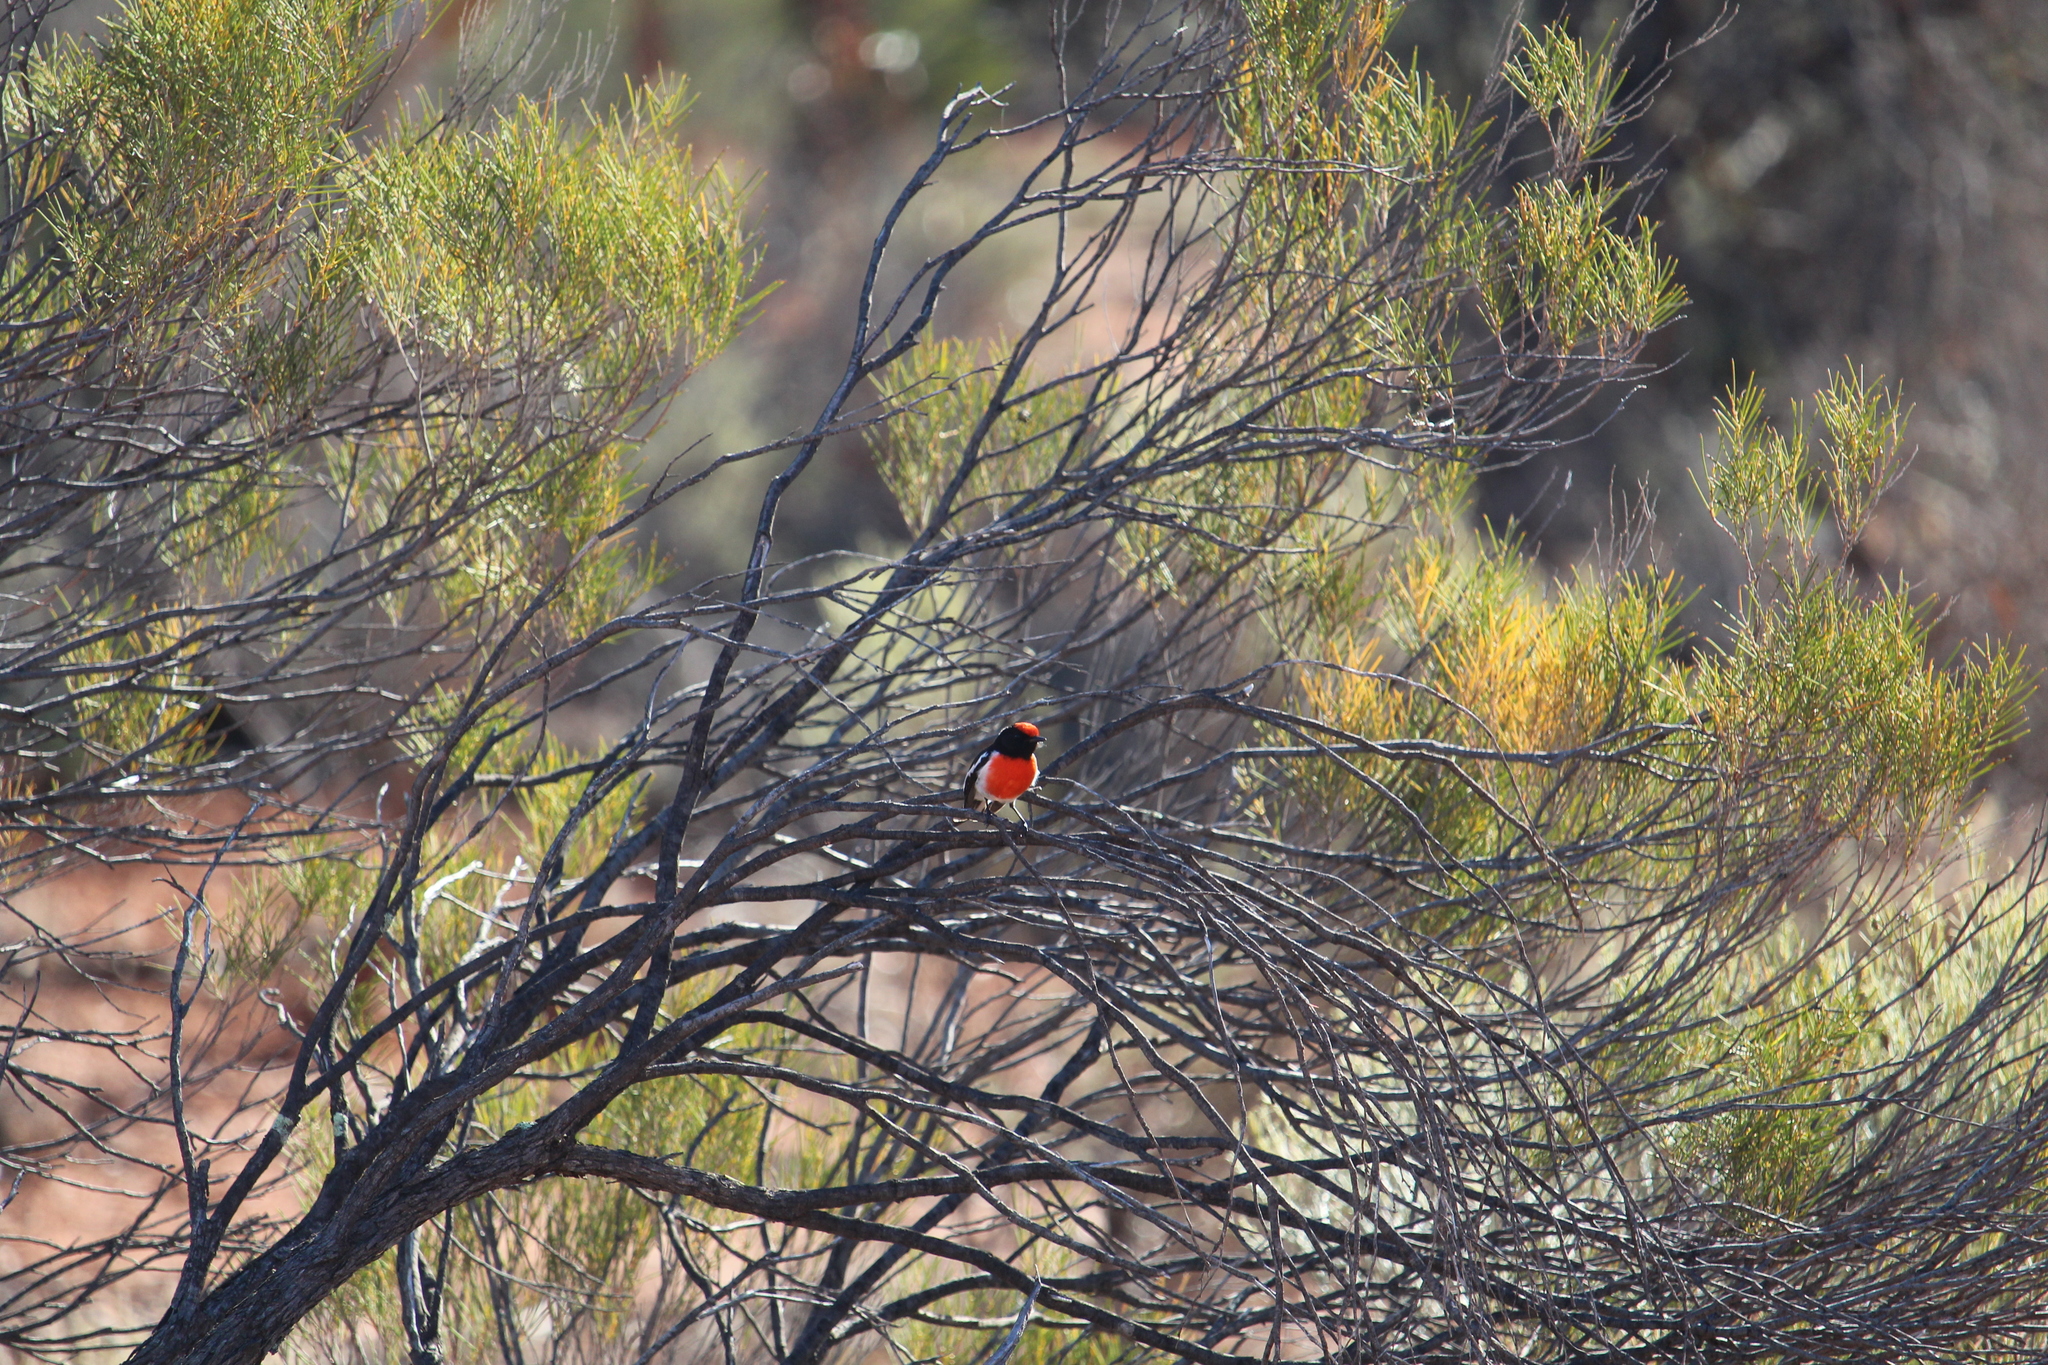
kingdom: Animalia
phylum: Chordata
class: Aves
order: Passeriformes
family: Petroicidae
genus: Petroica
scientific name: Petroica goodenovii
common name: Red-capped robin
